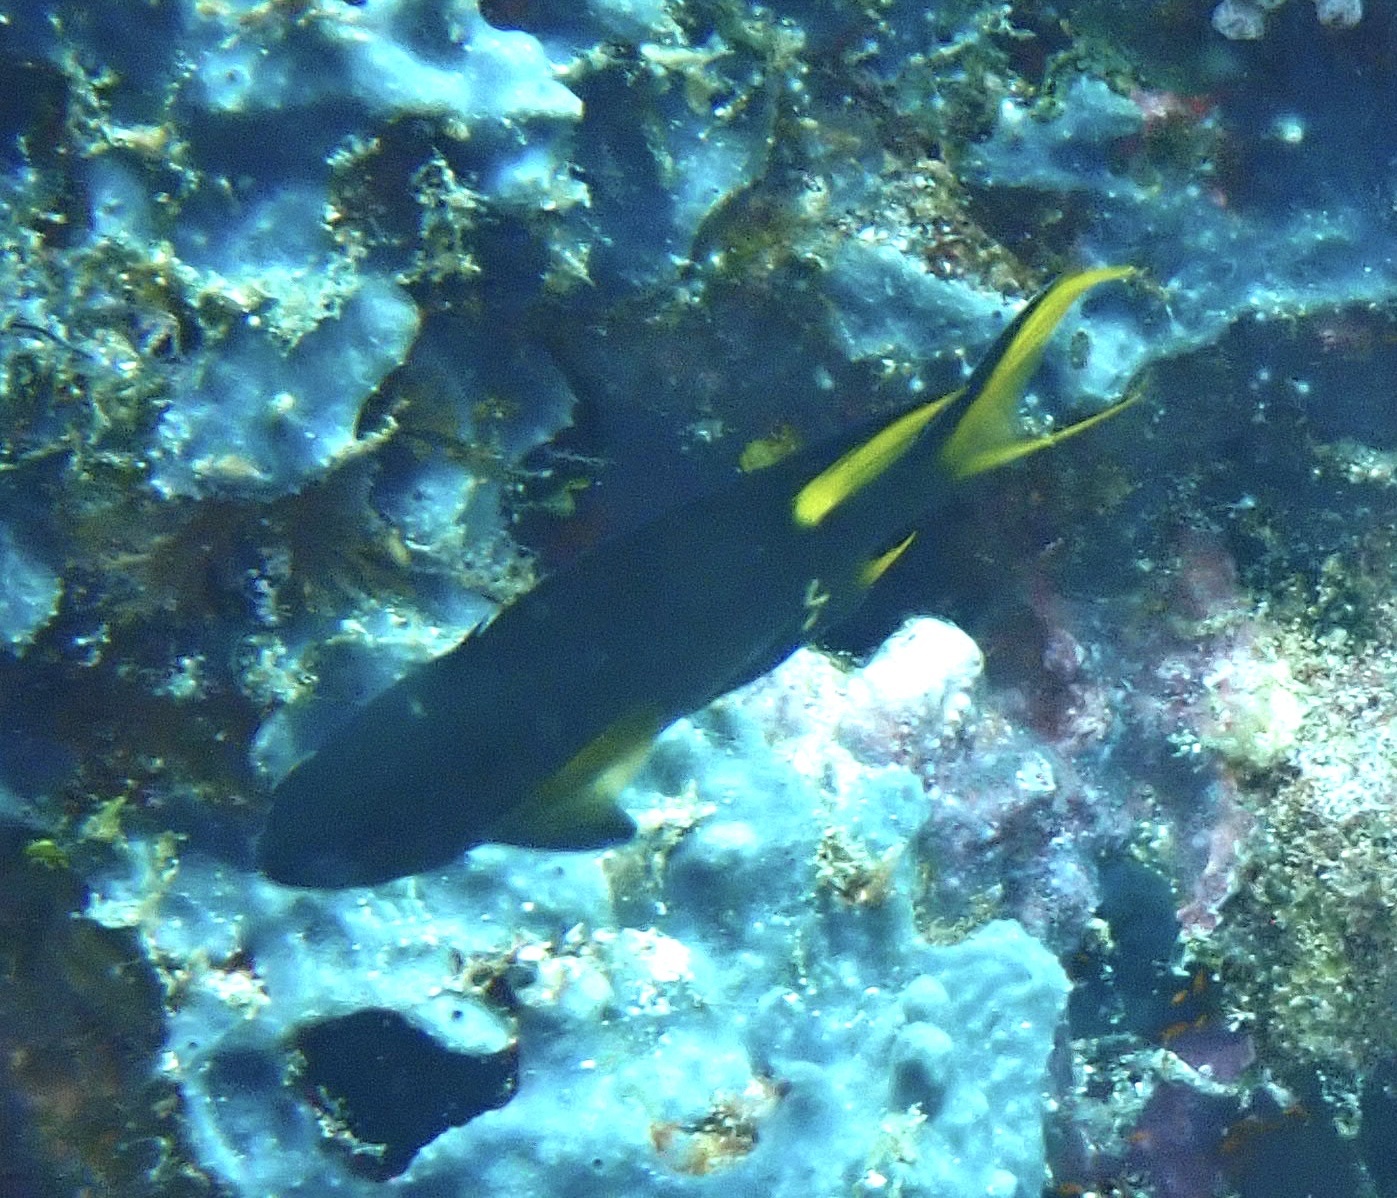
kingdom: Animalia
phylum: Chordata
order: Perciformes
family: Pomacentridae
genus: Neopomacentrus
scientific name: Neopomacentrus cyanomos
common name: Regal demoiselle
